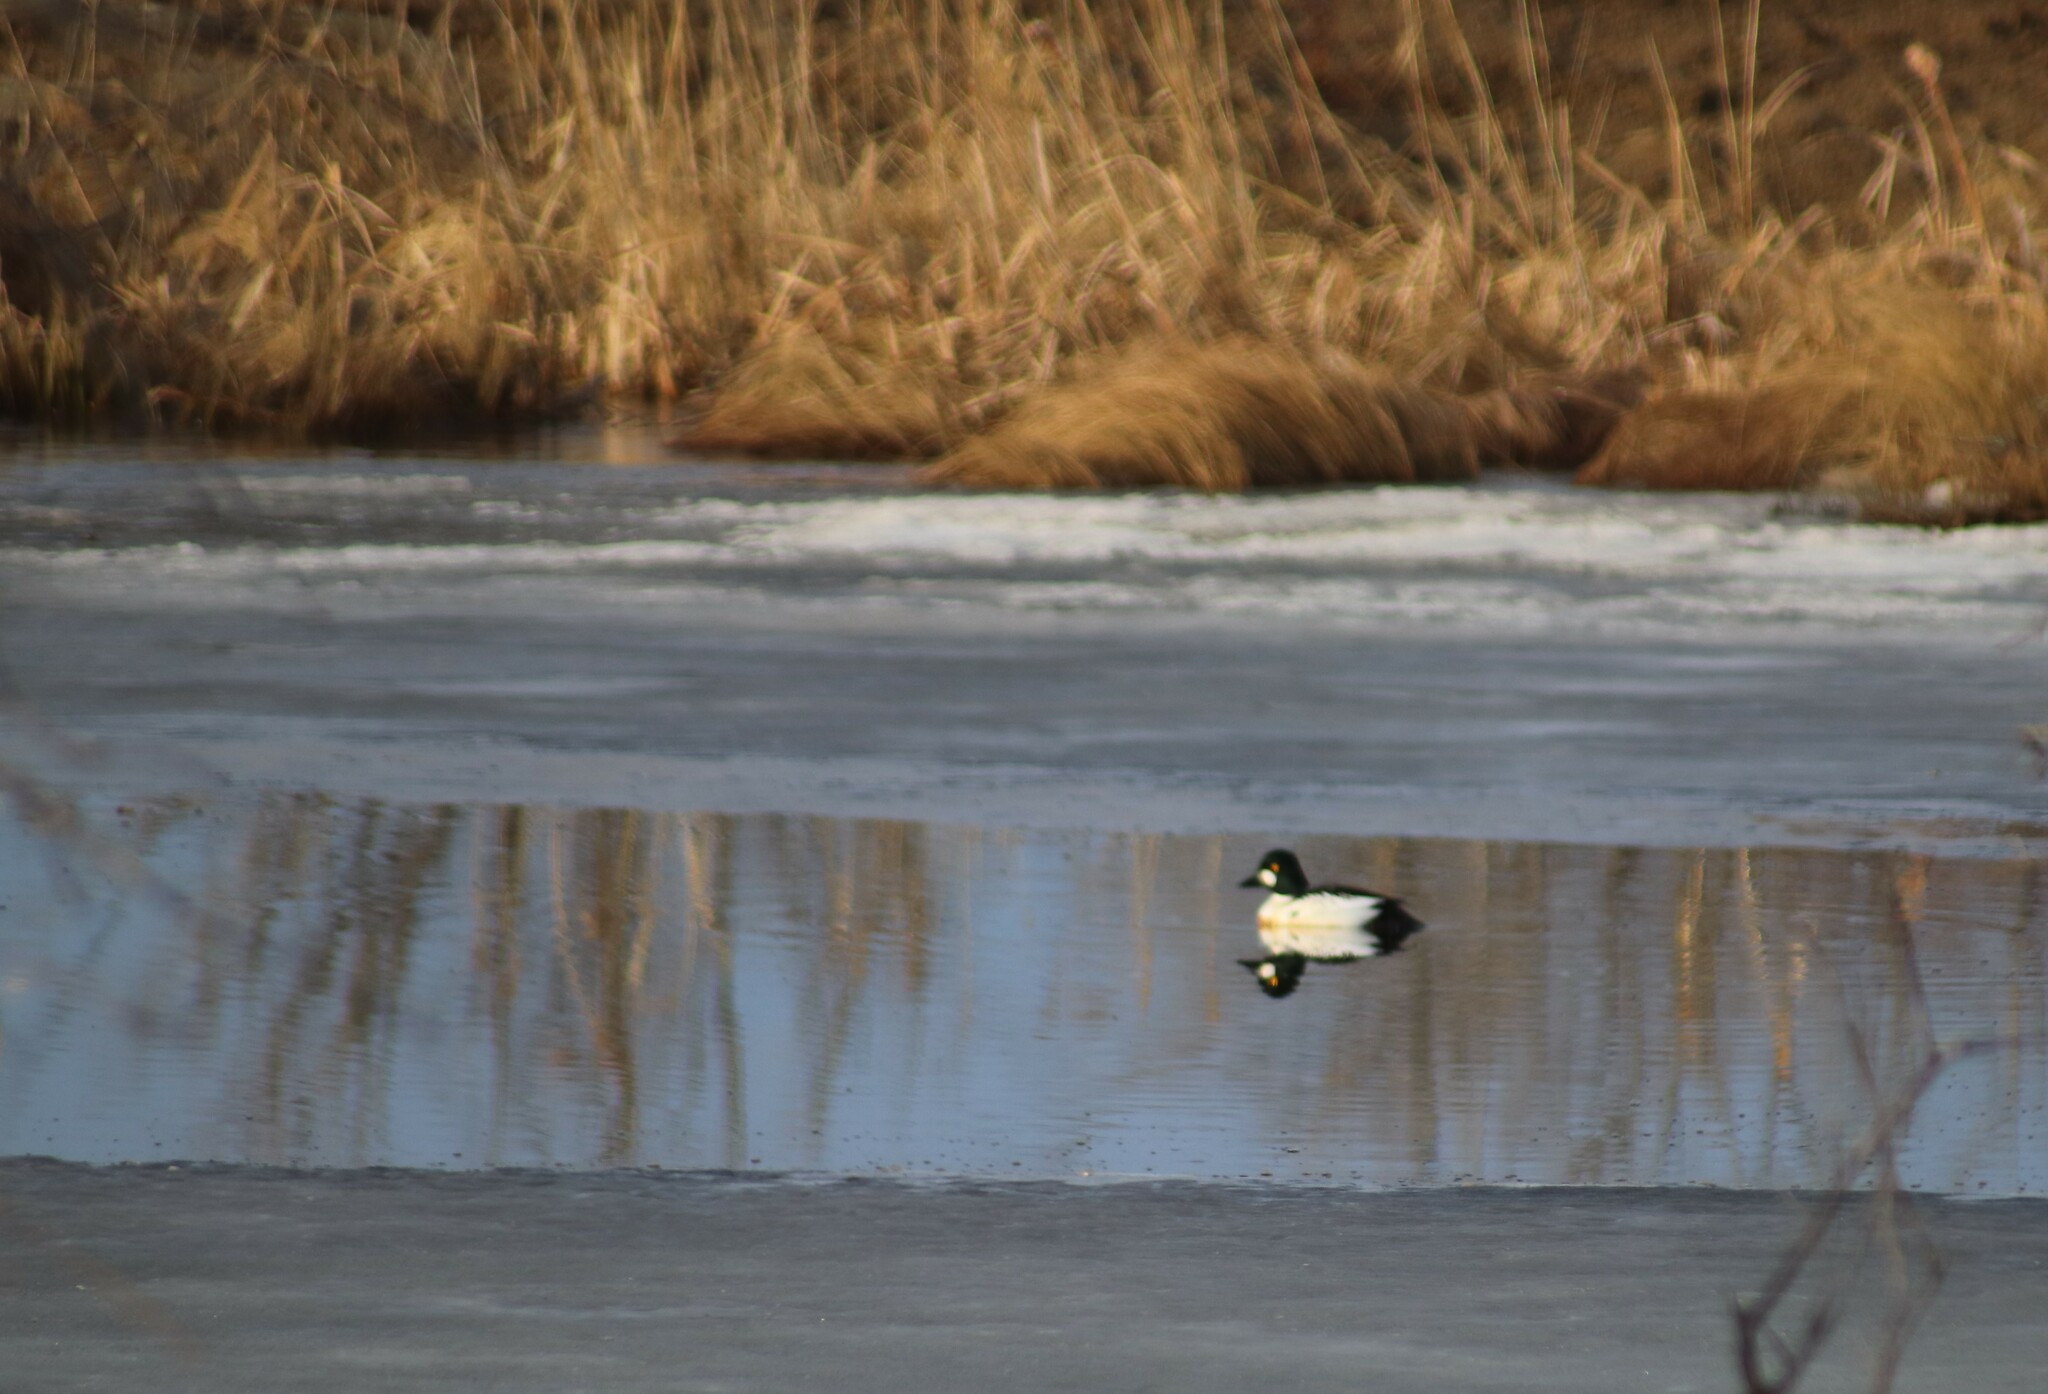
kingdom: Animalia
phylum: Chordata
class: Aves
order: Anseriformes
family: Anatidae
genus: Bucephala
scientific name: Bucephala clangula
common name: Common goldeneye
